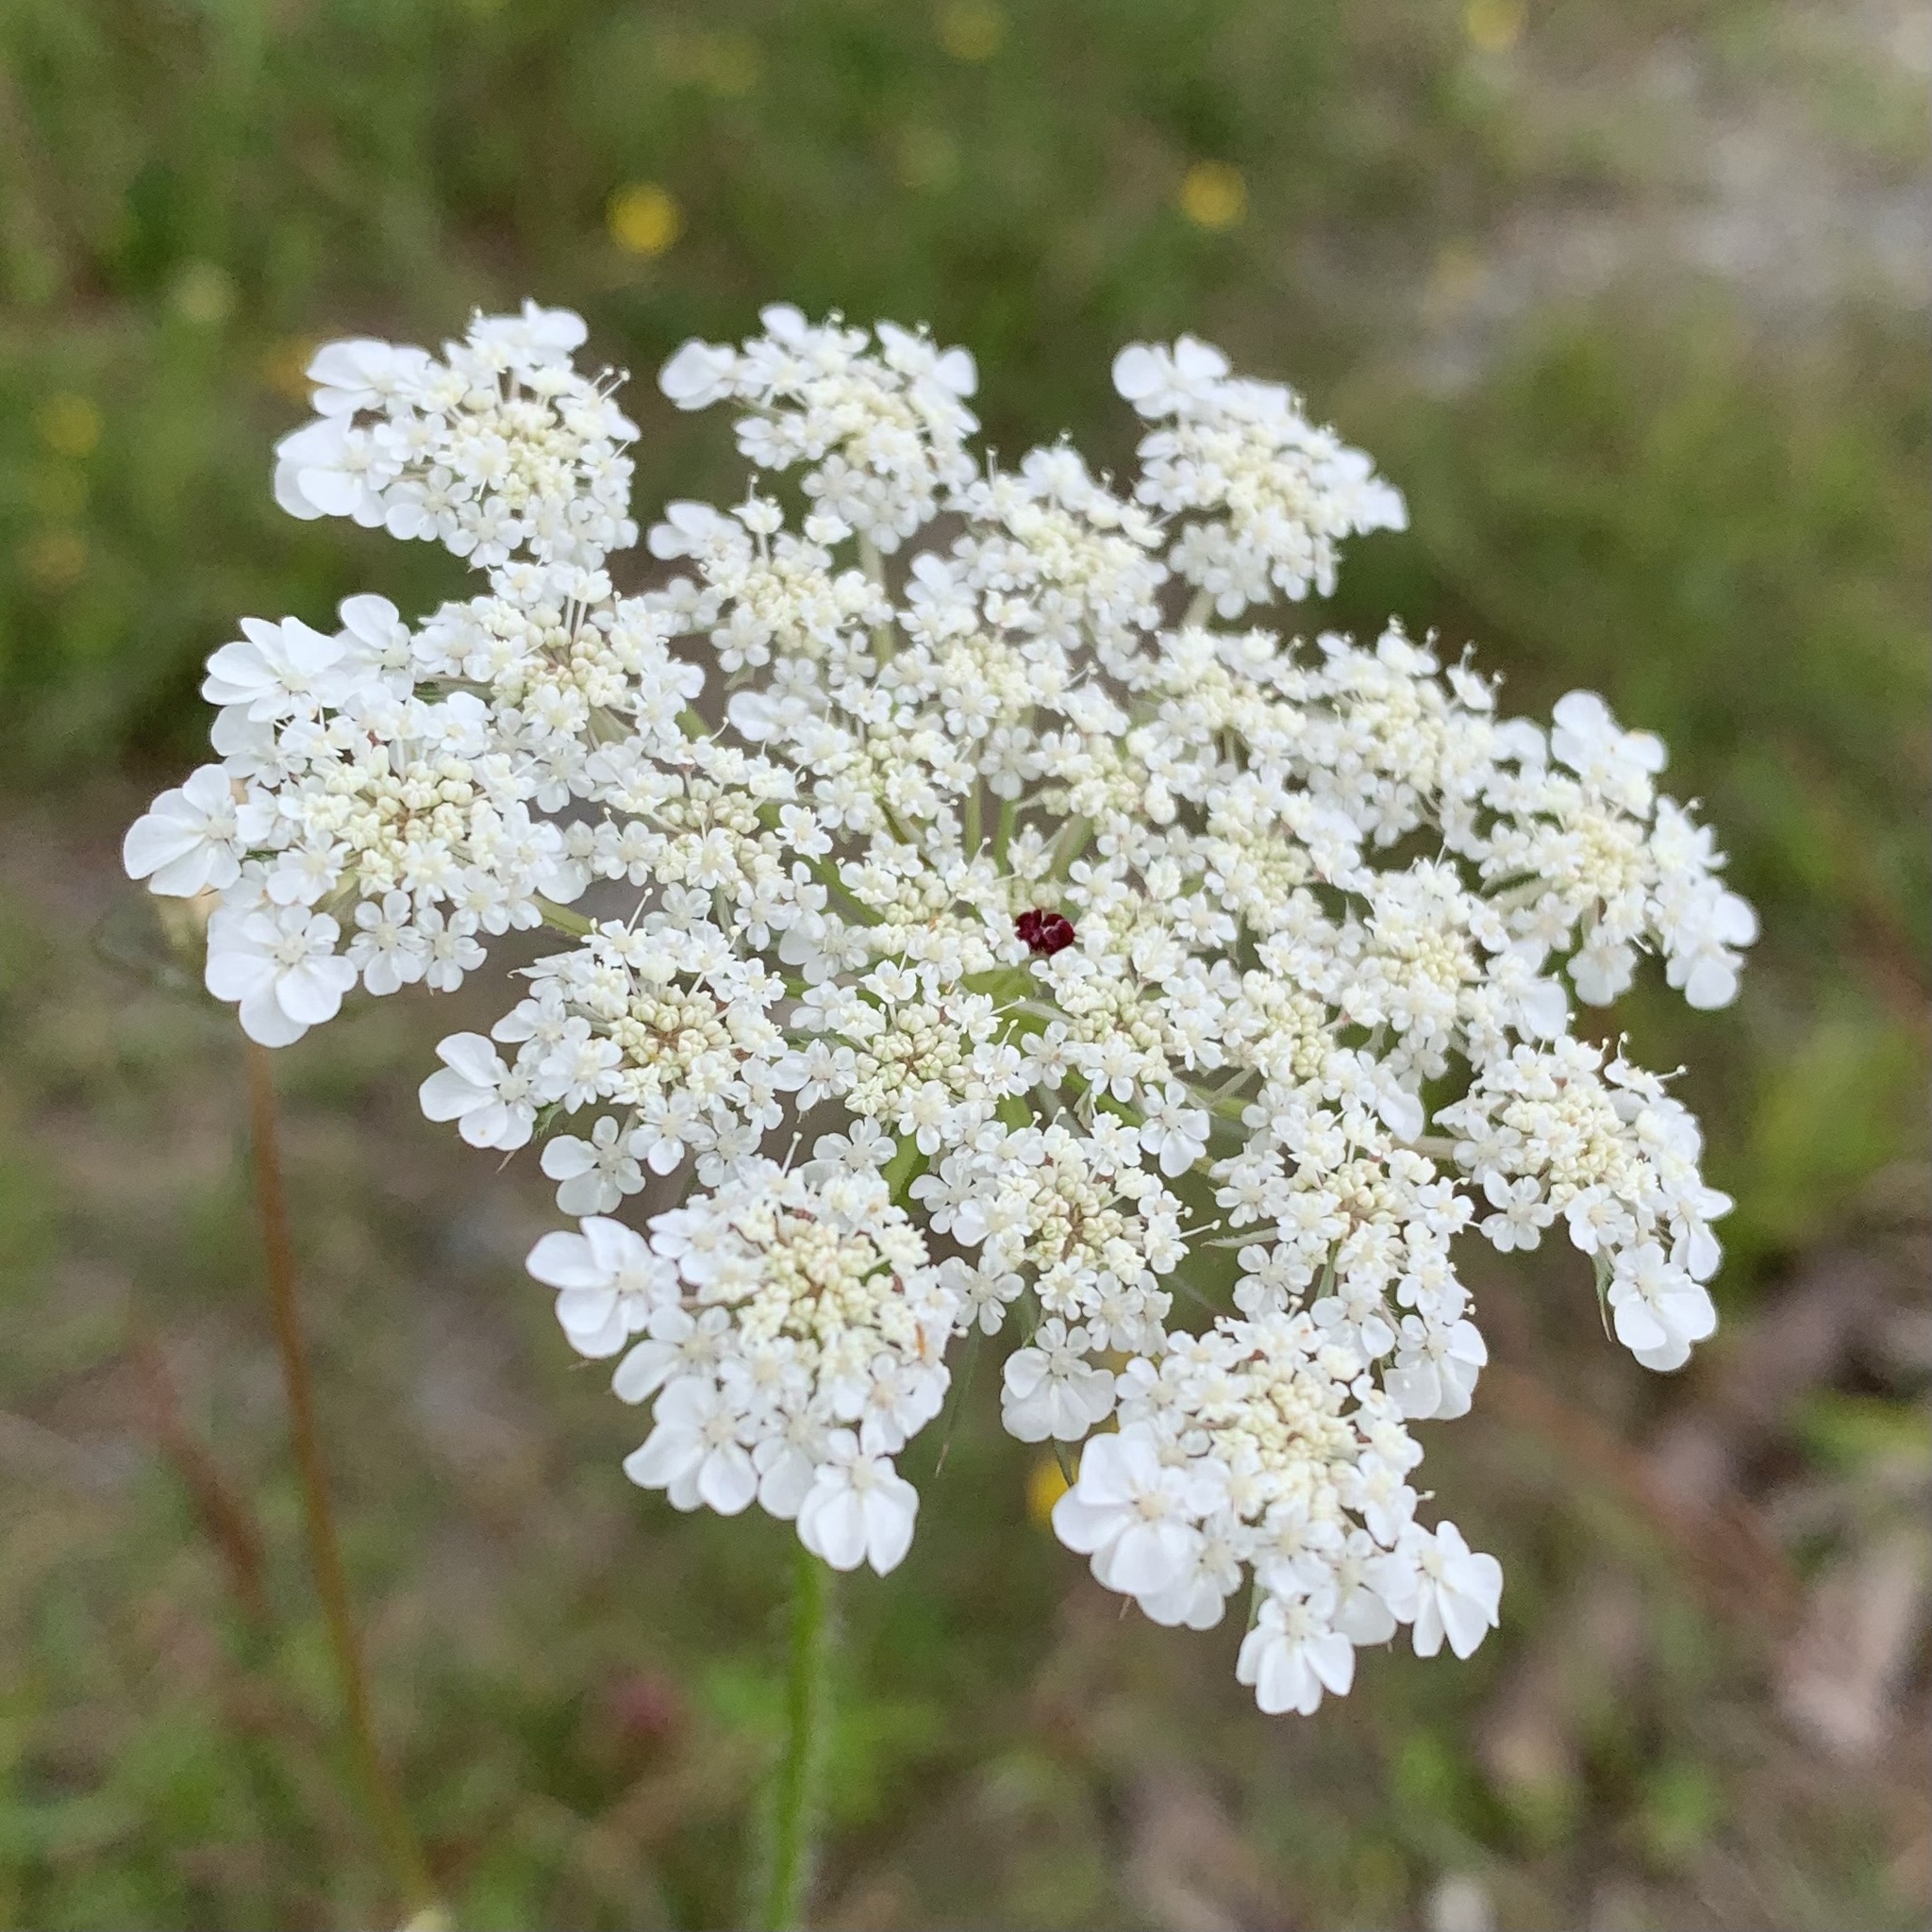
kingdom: Plantae
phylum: Tracheophyta
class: Magnoliopsida
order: Apiales
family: Apiaceae
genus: Daucus
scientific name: Daucus carota
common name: Wild carrot
